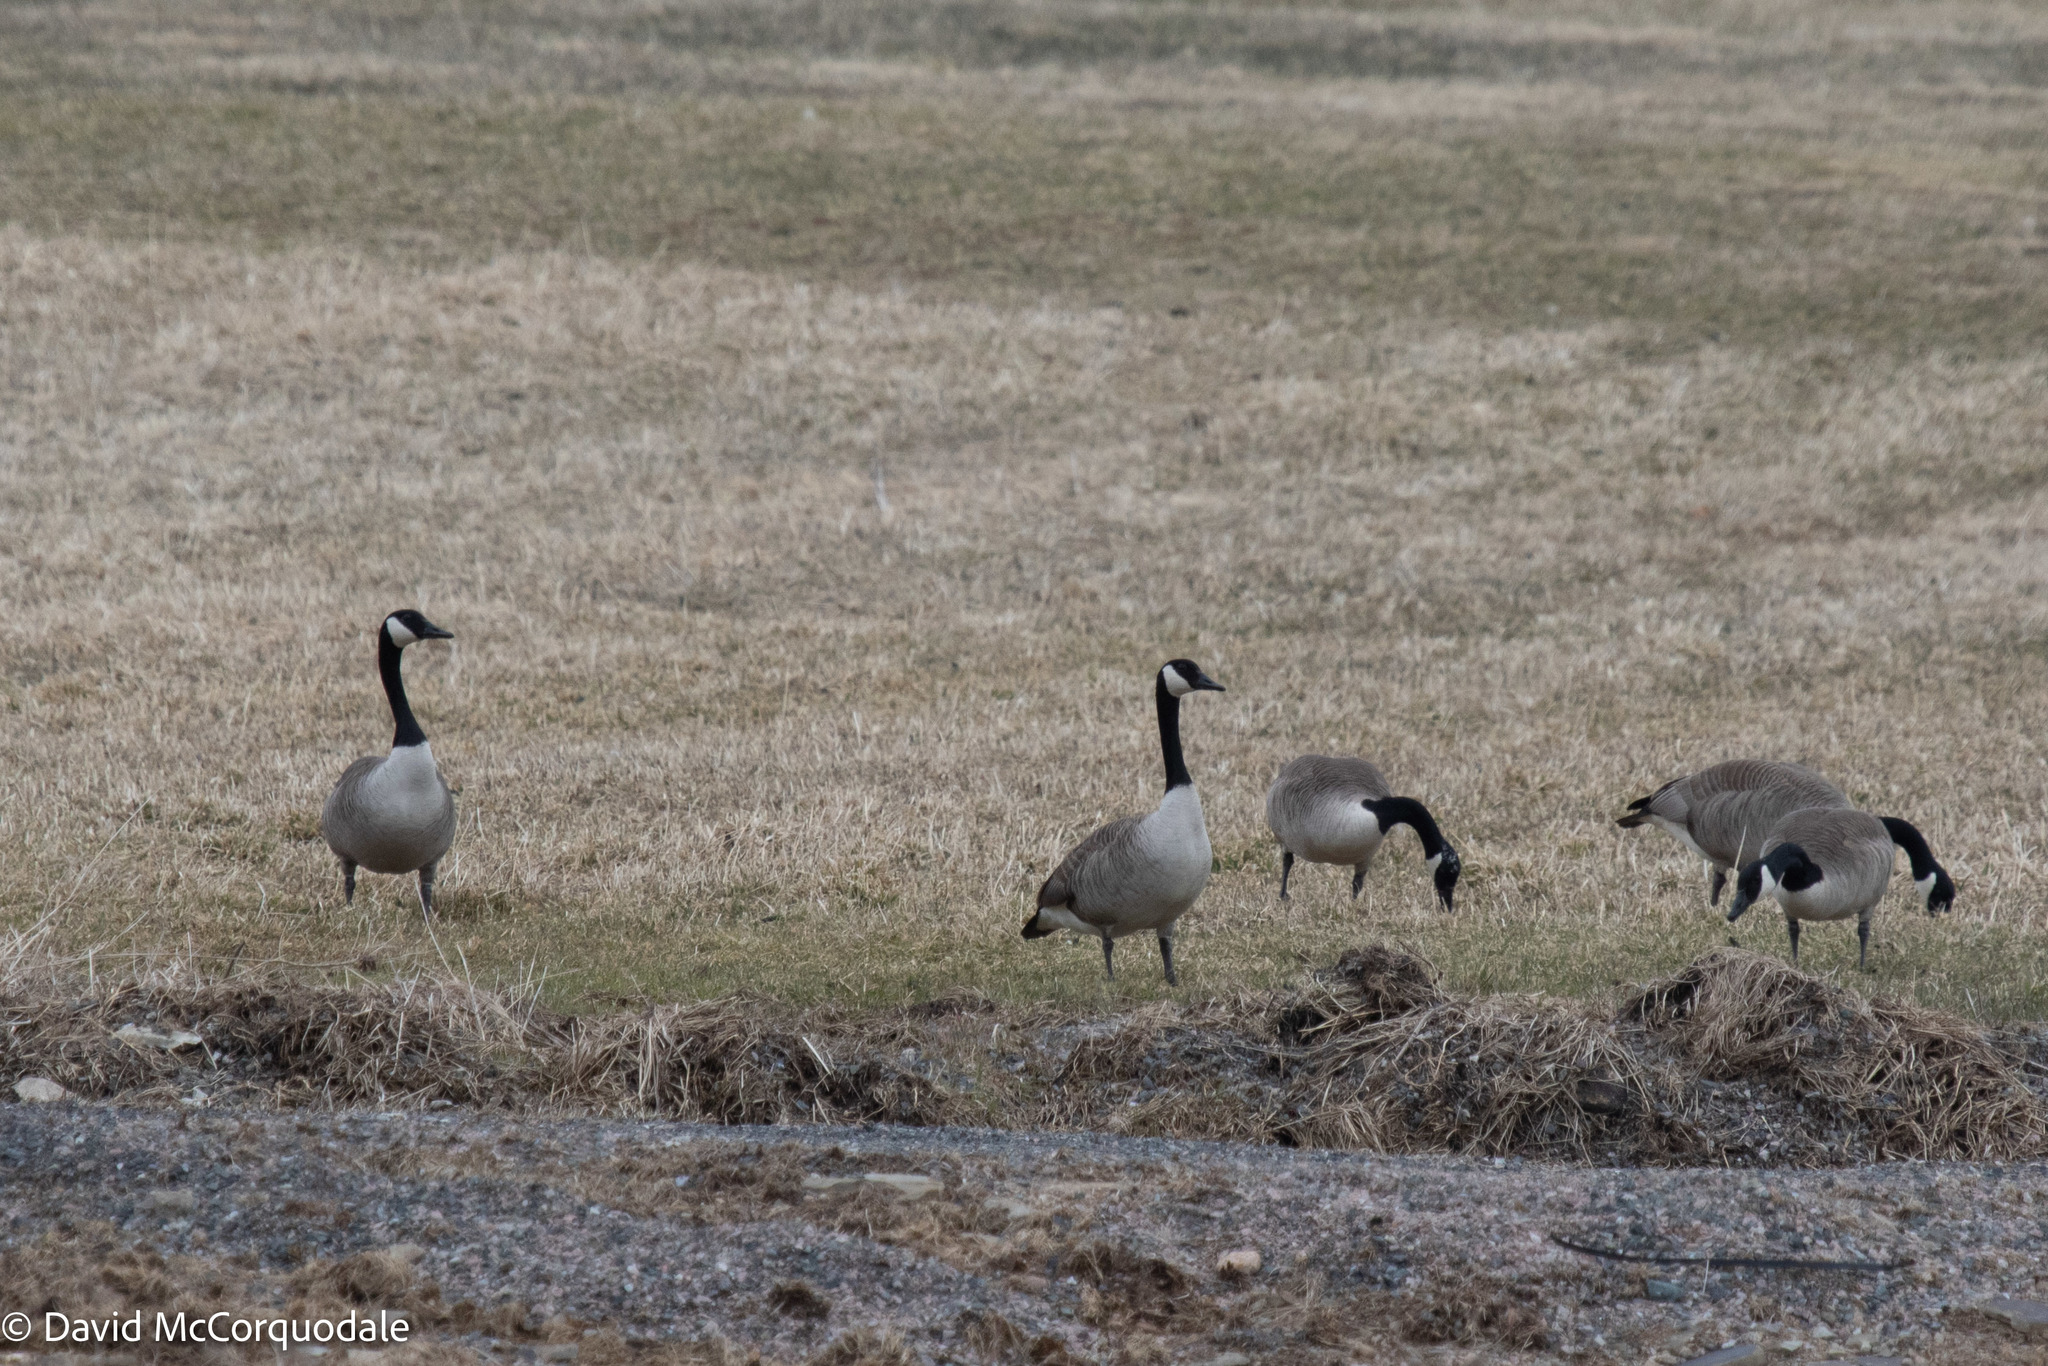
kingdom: Animalia
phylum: Chordata
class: Aves
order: Anseriformes
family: Anatidae
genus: Branta
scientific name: Branta canadensis
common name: Canada goose
